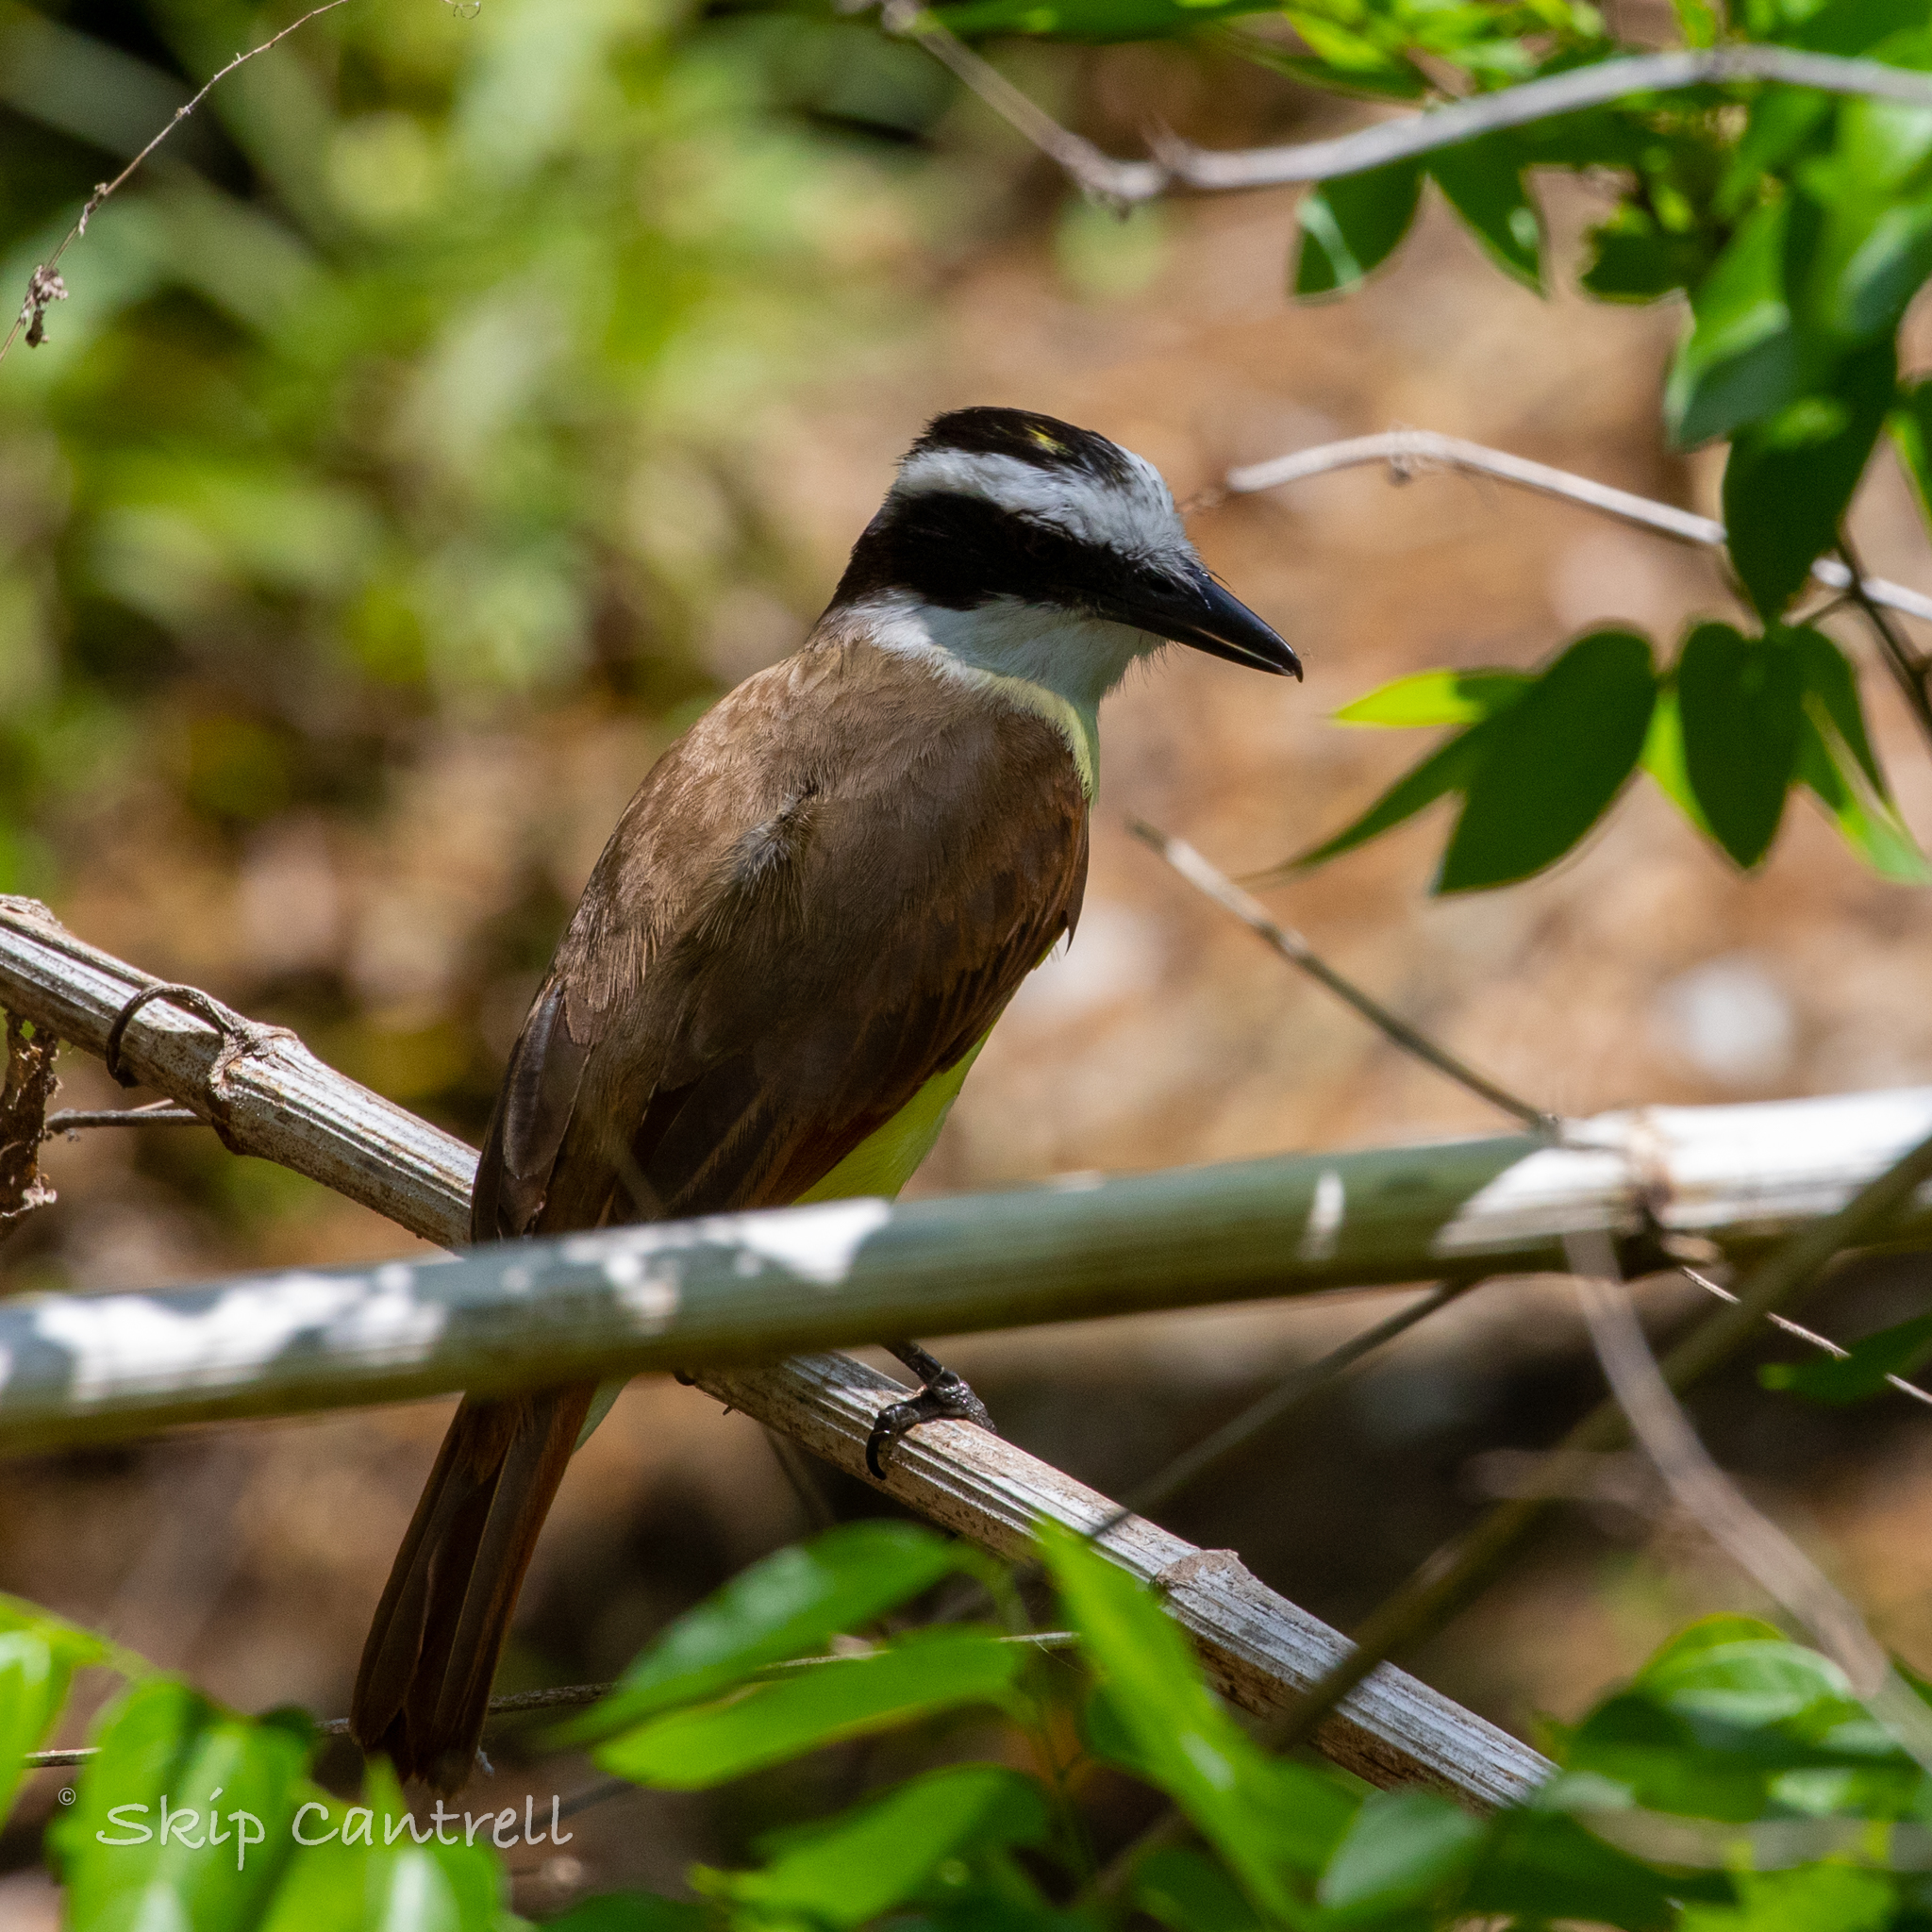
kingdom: Animalia
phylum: Chordata
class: Aves
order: Passeriformes
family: Tyrannidae
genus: Pitangus
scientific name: Pitangus sulphuratus
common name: Great kiskadee
